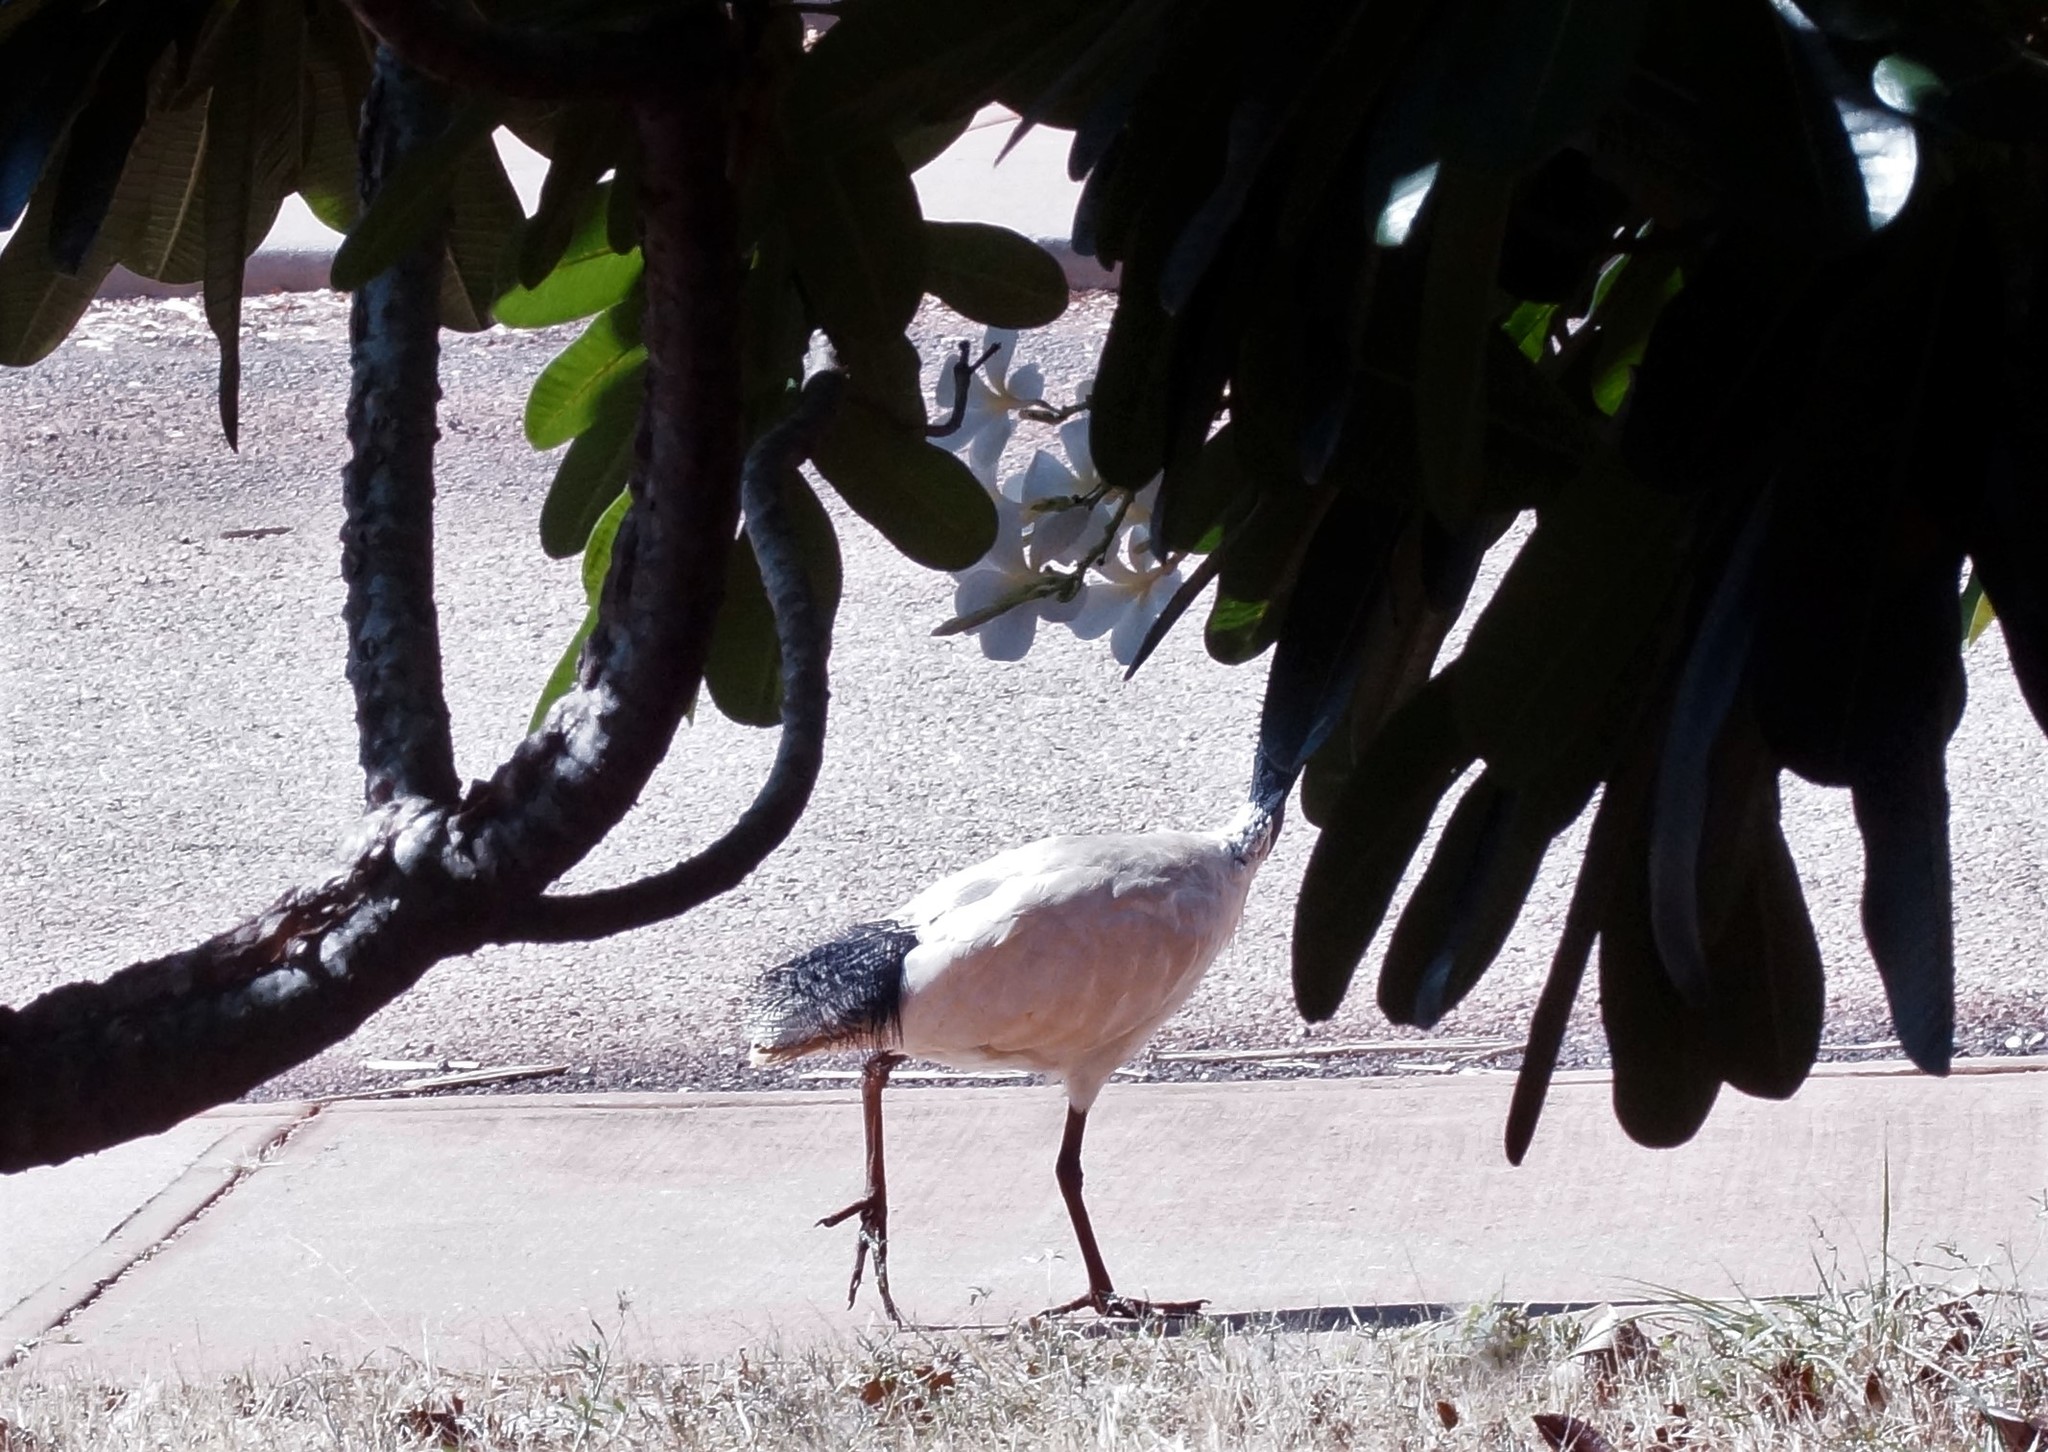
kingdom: Animalia
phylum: Chordata
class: Aves
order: Pelecaniformes
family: Threskiornithidae
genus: Threskiornis
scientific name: Threskiornis molucca
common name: Australian white ibis
